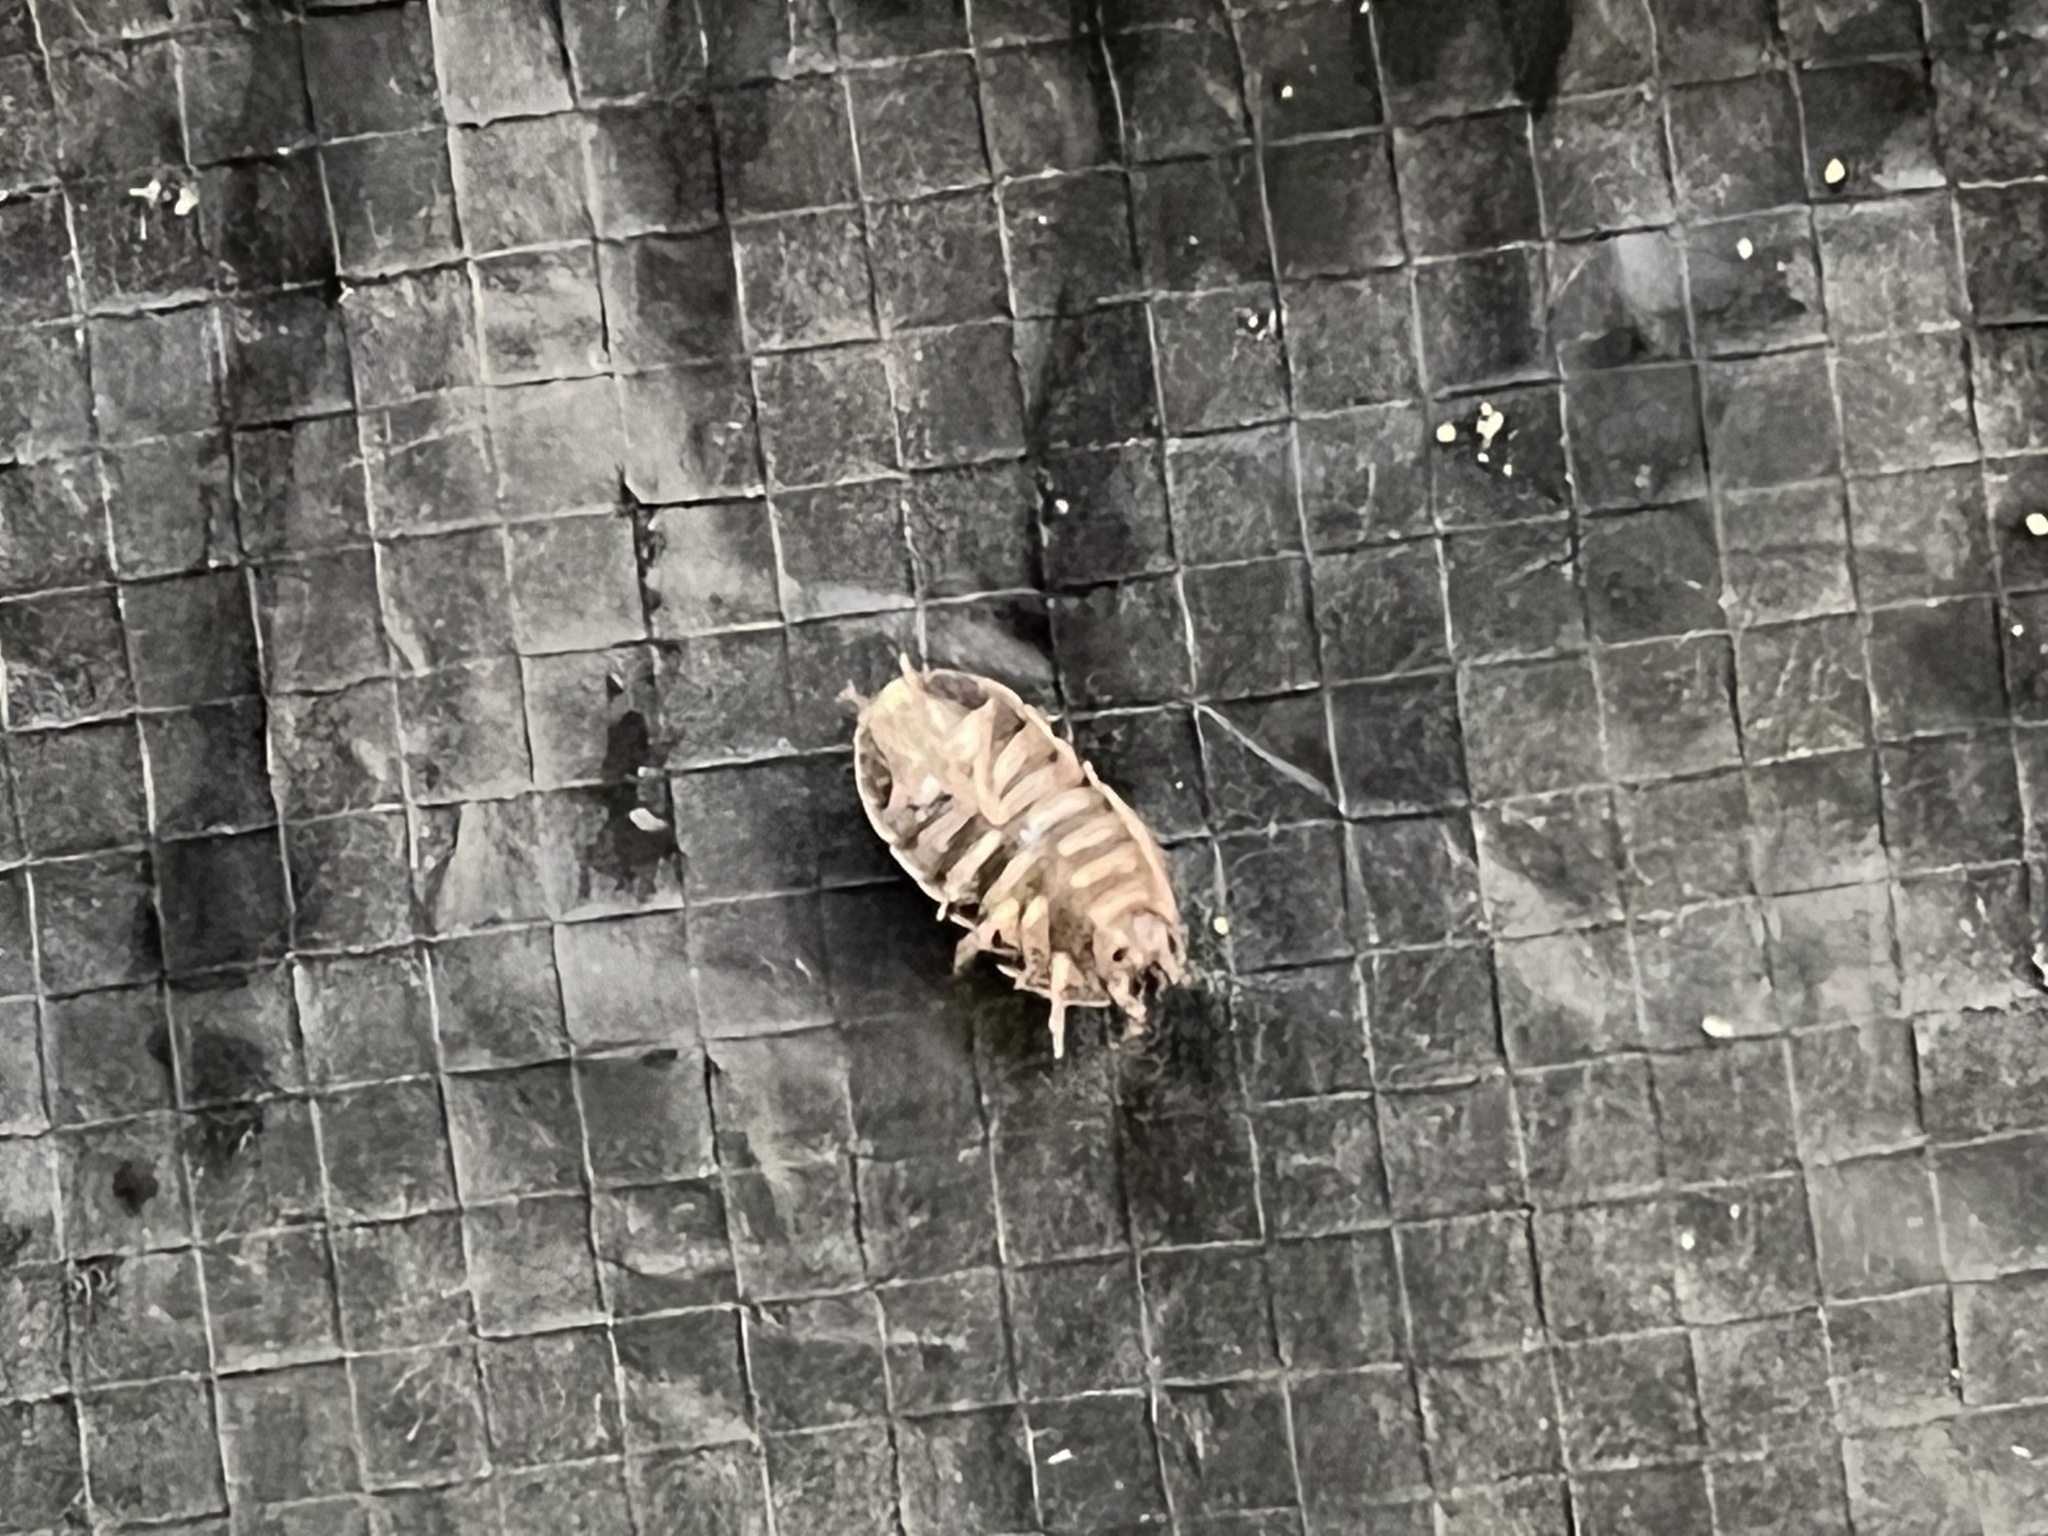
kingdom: Animalia
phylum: Arthropoda
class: Malacostraca
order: Isopoda
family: Armadillidiidae
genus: Armadillidium
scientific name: Armadillidium vulgare
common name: Common pill woodlouse
